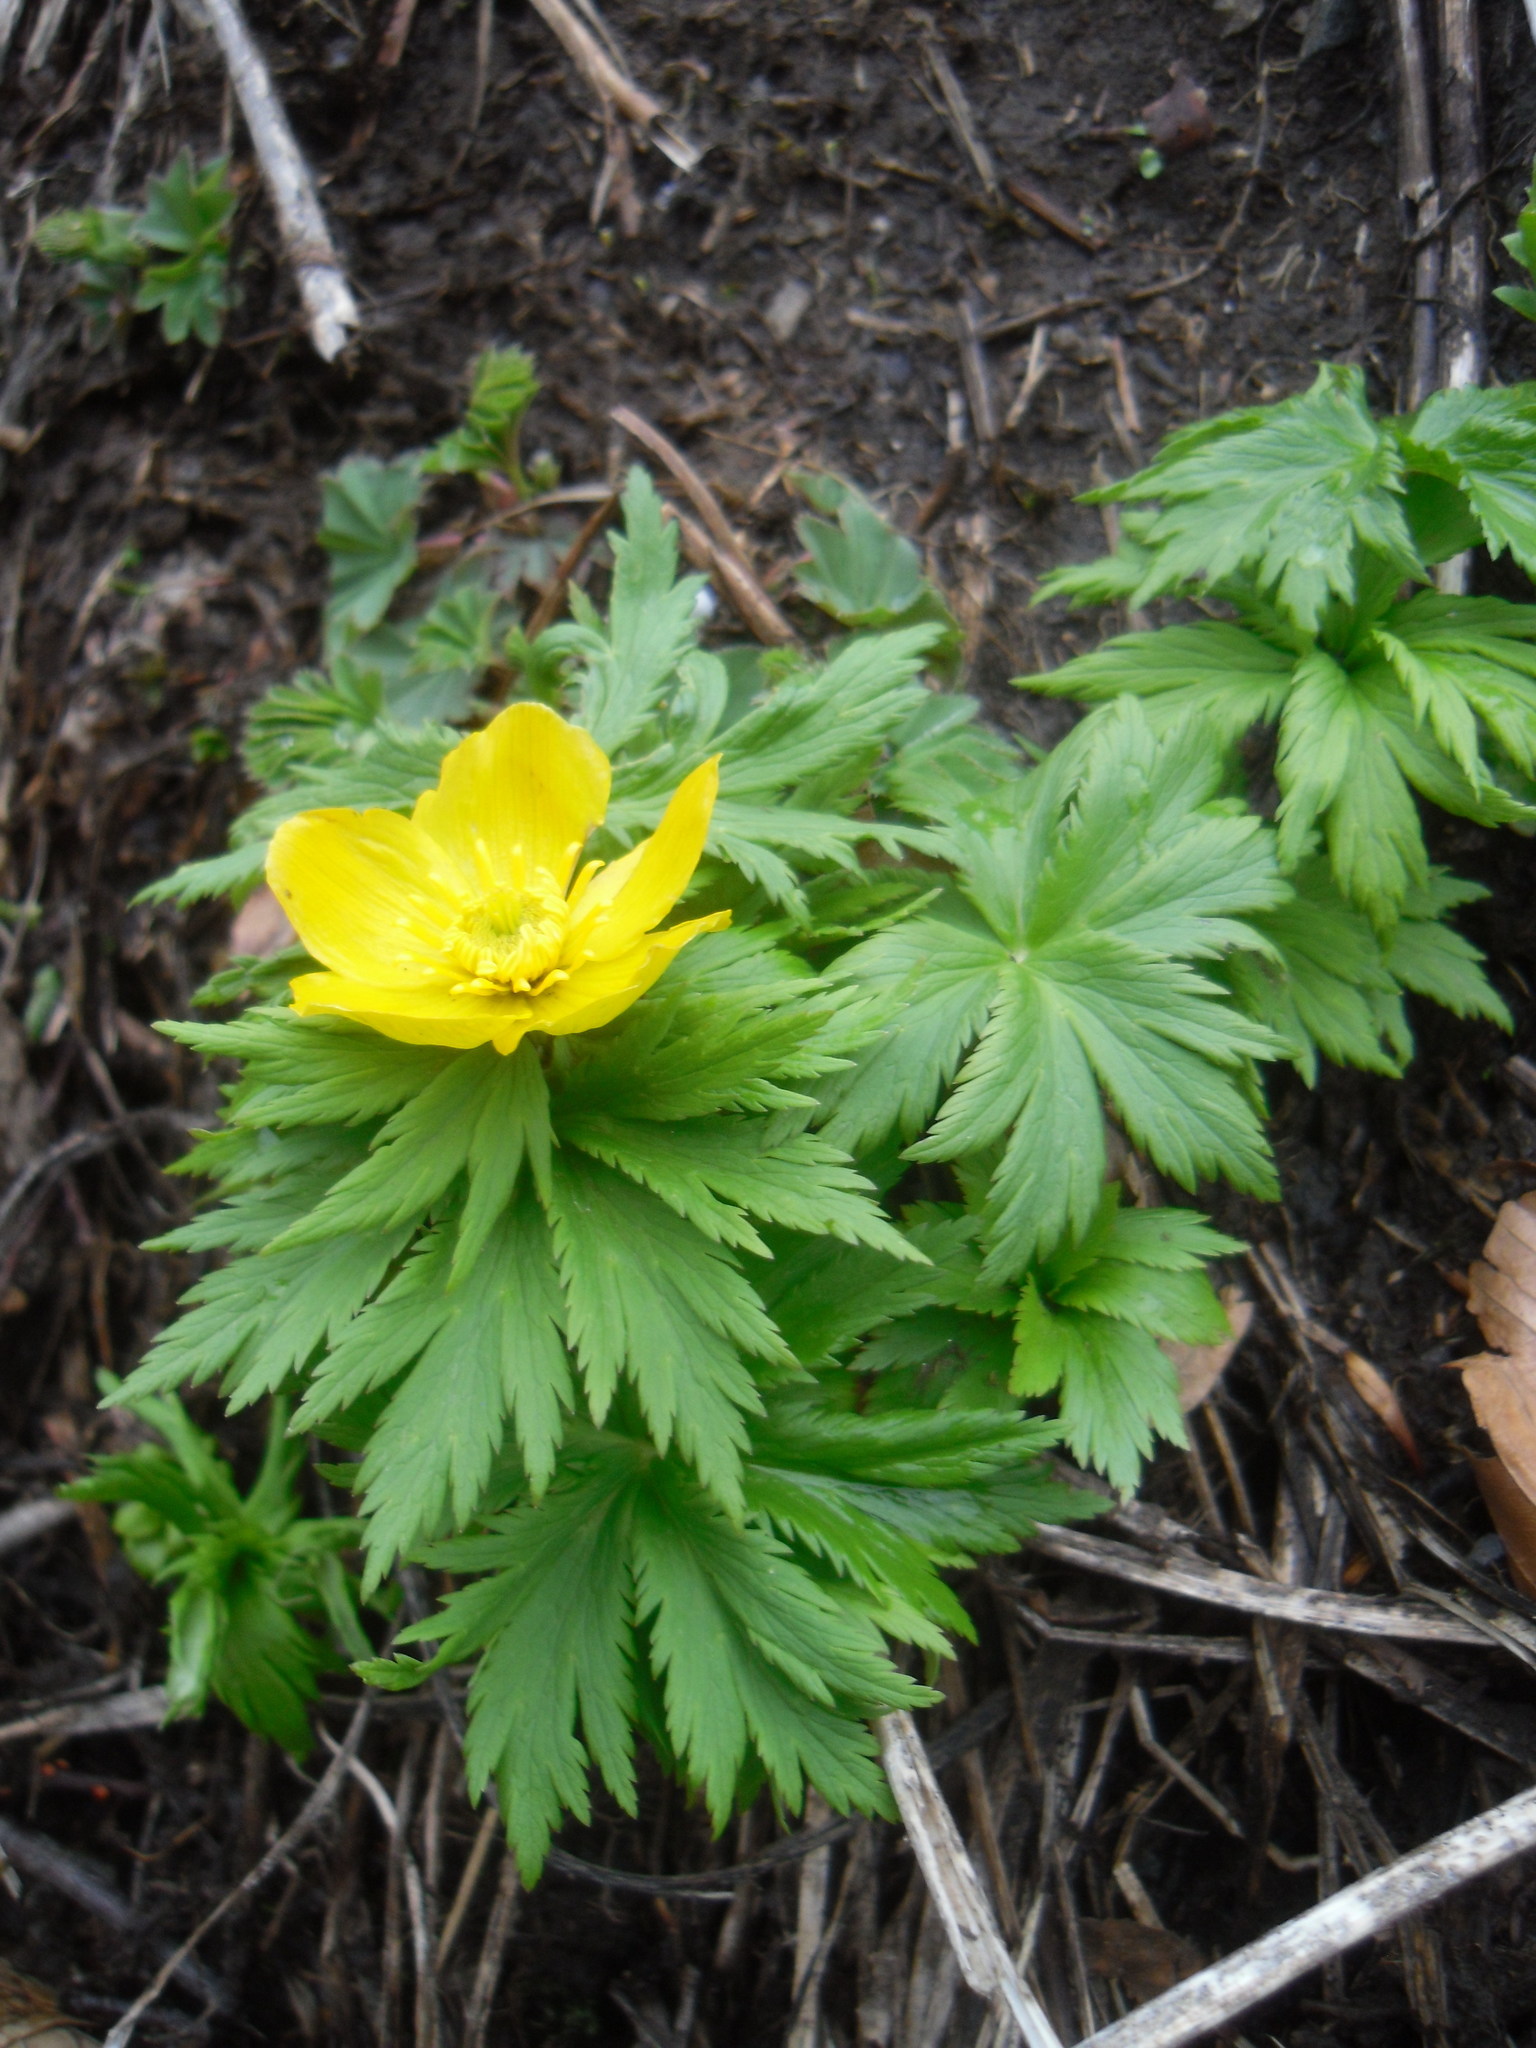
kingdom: Plantae
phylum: Tracheophyta
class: Magnoliopsida
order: Ranunculales
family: Ranunculaceae
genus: Trollius
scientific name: Trollius ranunculinus
